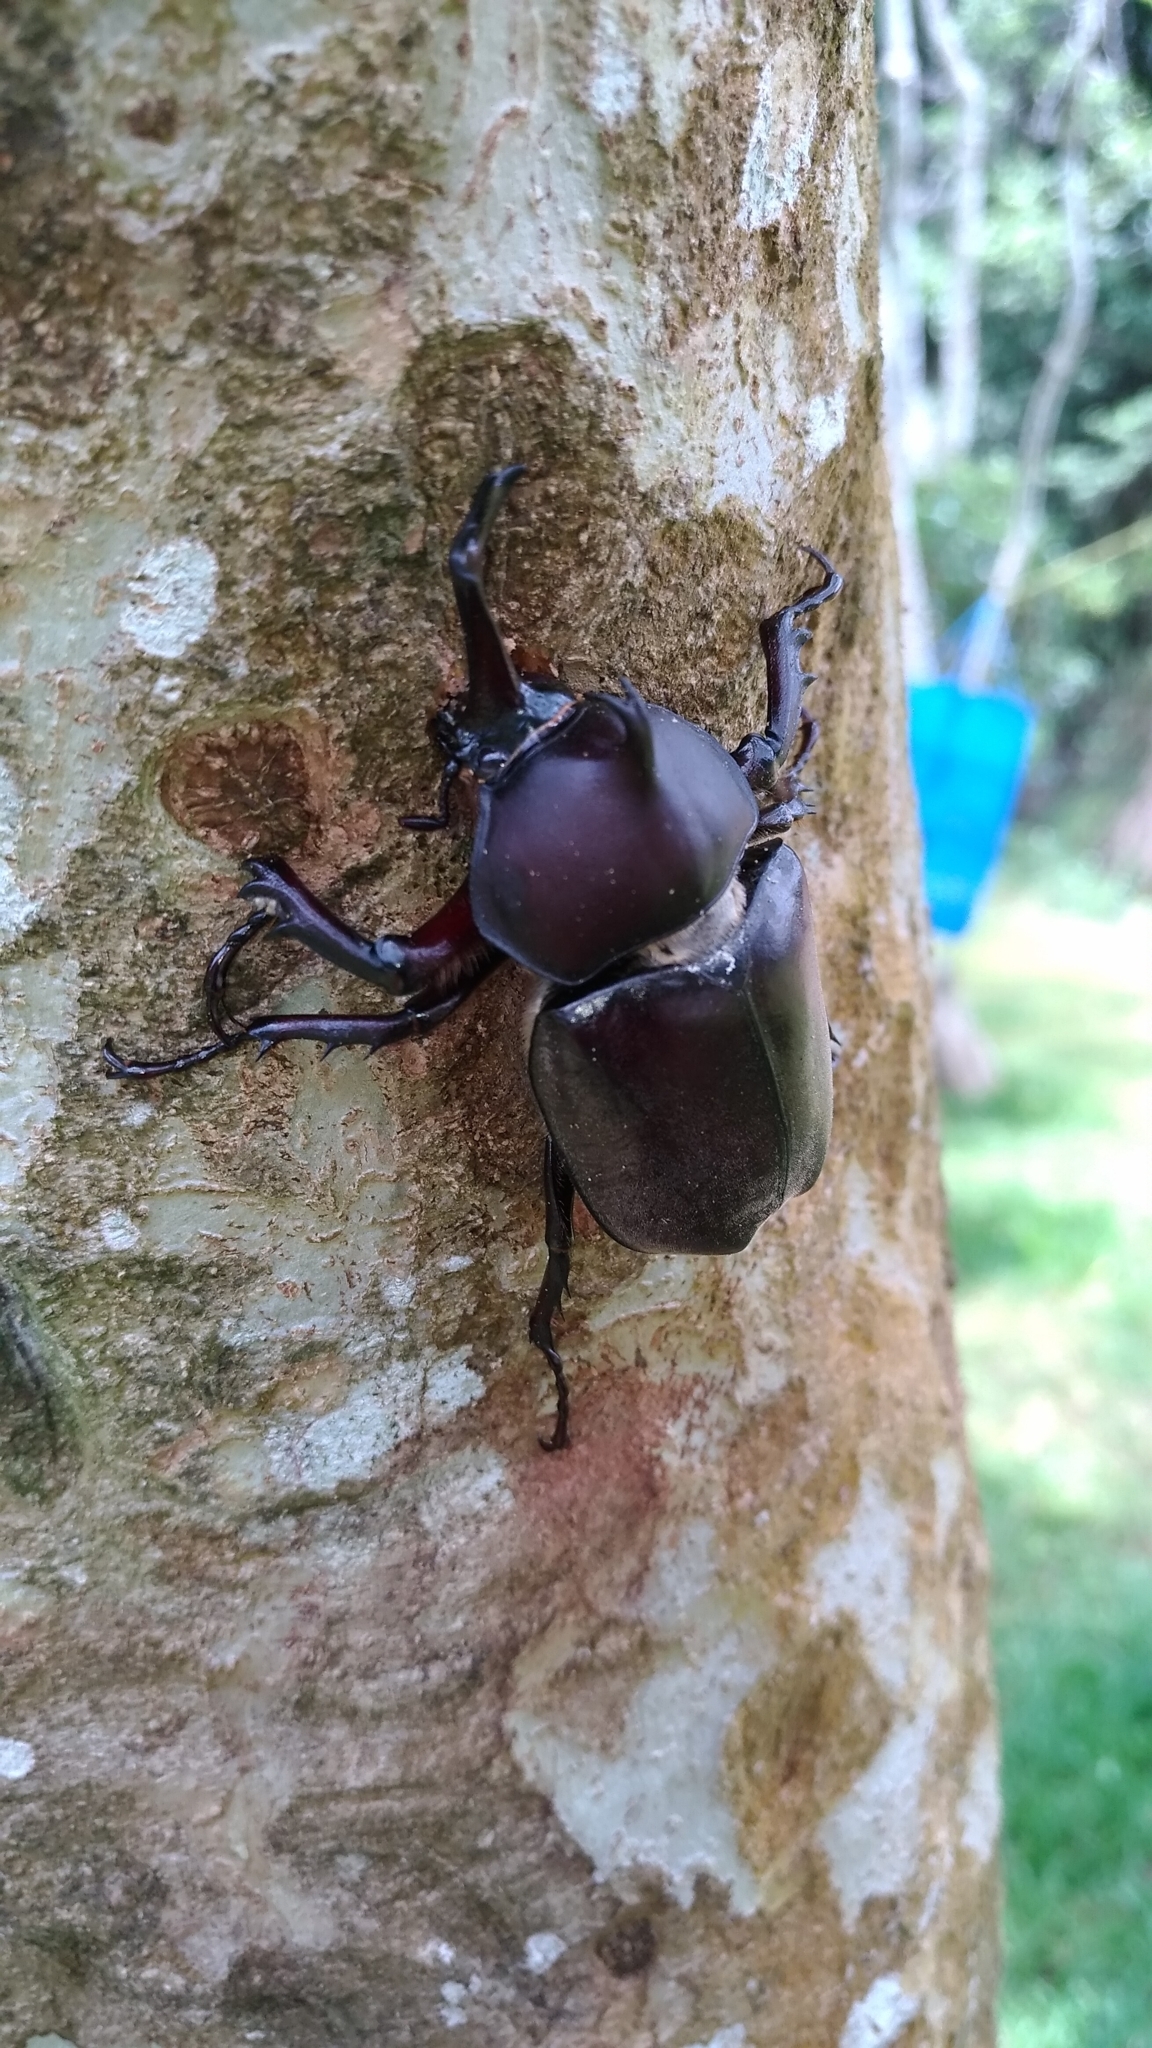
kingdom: Animalia
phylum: Arthropoda
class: Insecta
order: Coleoptera
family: Scarabaeidae
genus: Trypoxylus
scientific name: Trypoxylus dichotomus
